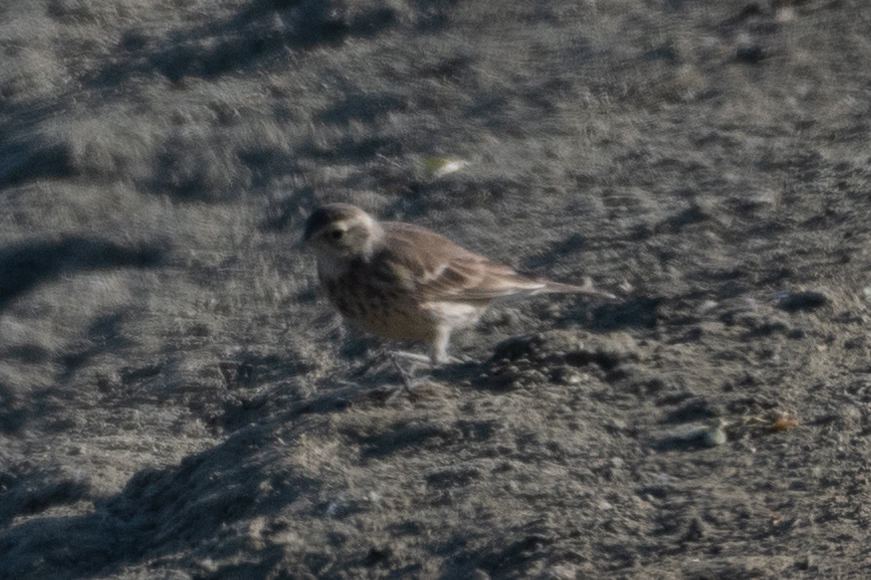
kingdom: Animalia
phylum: Chordata
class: Aves
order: Passeriformes
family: Motacillidae
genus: Anthus
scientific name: Anthus rubescens
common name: Buff-bellied pipit
